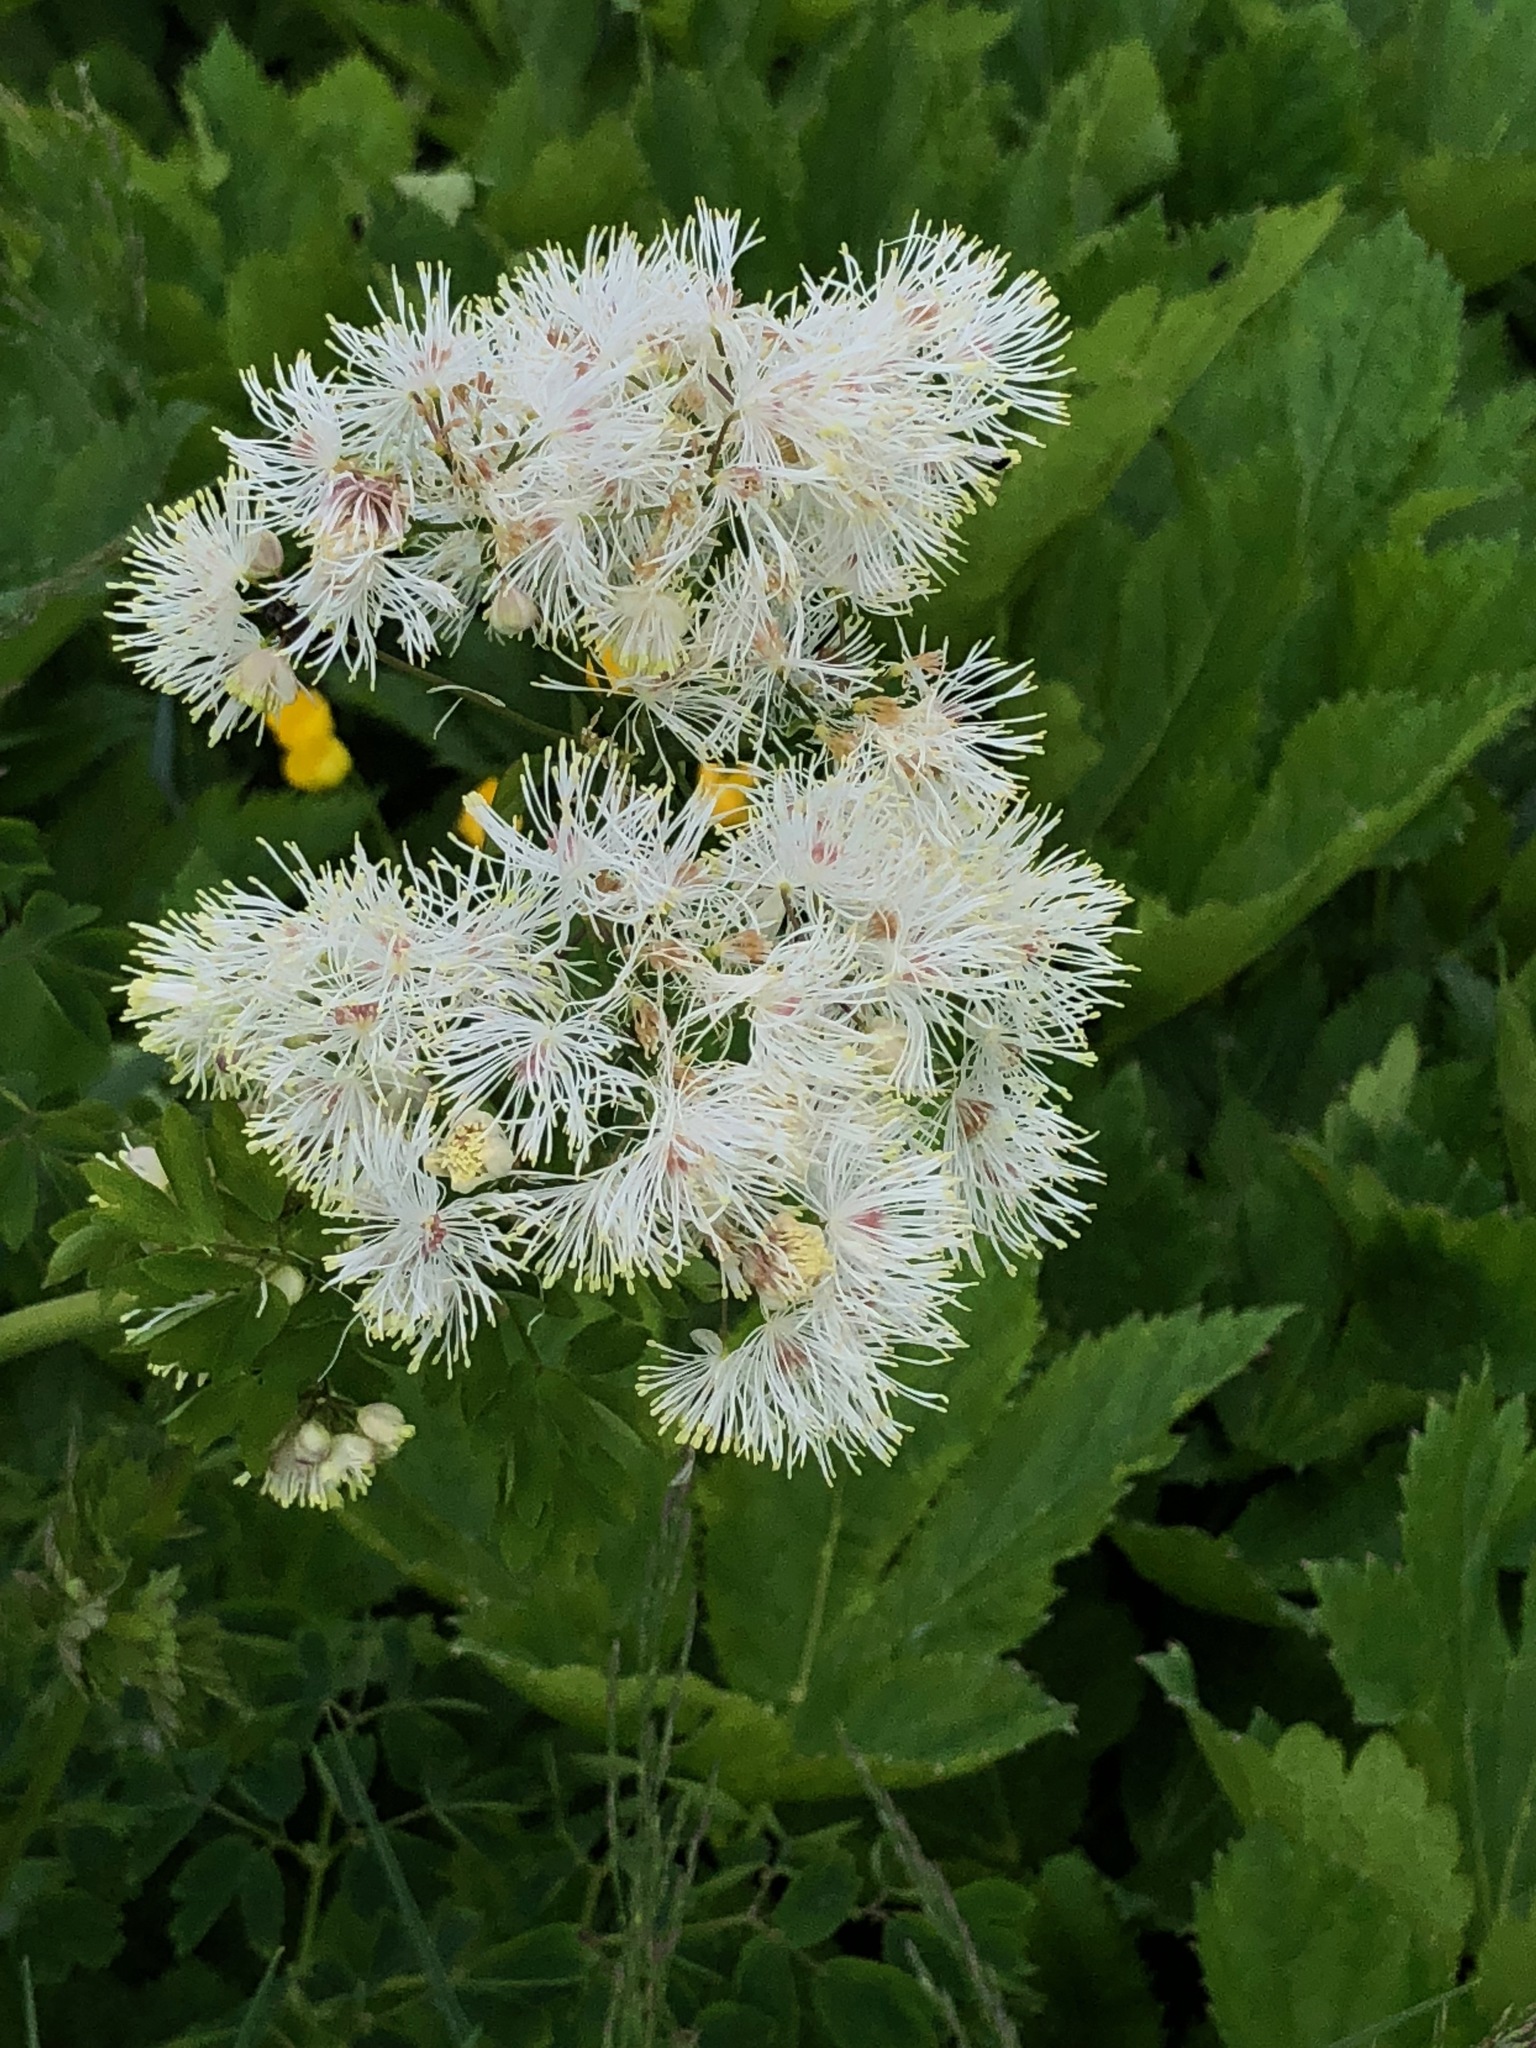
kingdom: Plantae
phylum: Tracheophyta
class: Magnoliopsida
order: Ranunculales
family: Ranunculaceae
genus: Thalictrum
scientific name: Thalictrum aquilegiifolium
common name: French meadow-rue
